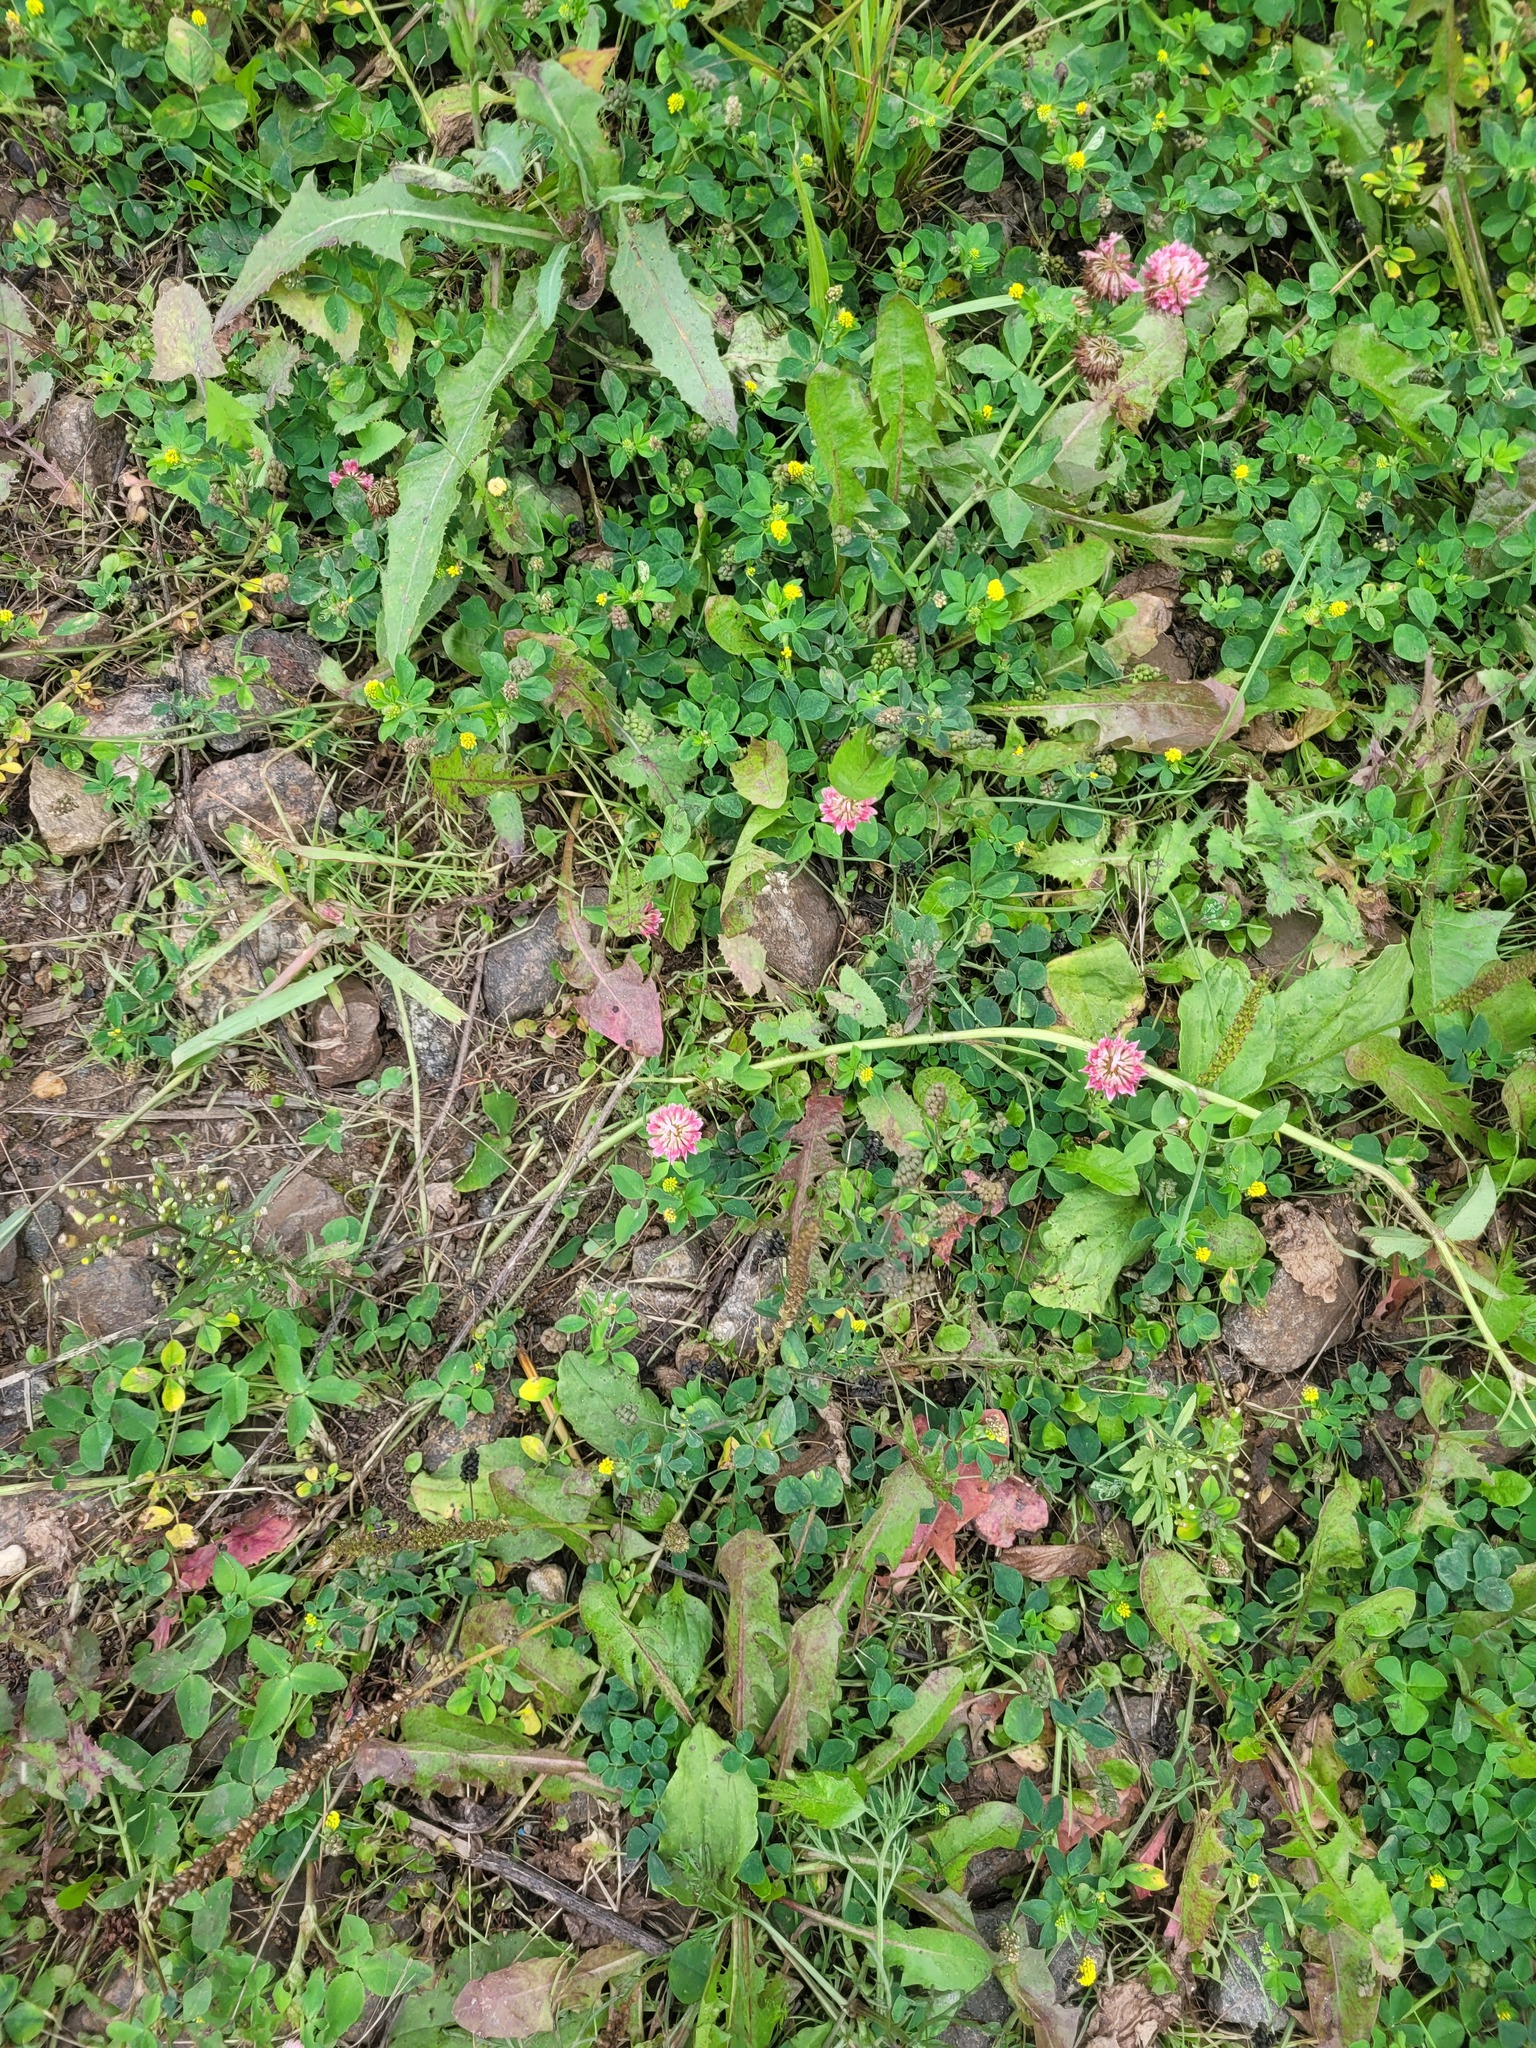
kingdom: Plantae
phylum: Tracheophyta
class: Magnoliopsida
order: Fabales
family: Fabaceae
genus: Trifolium
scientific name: Trifolium hybridum
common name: Alsike clover
